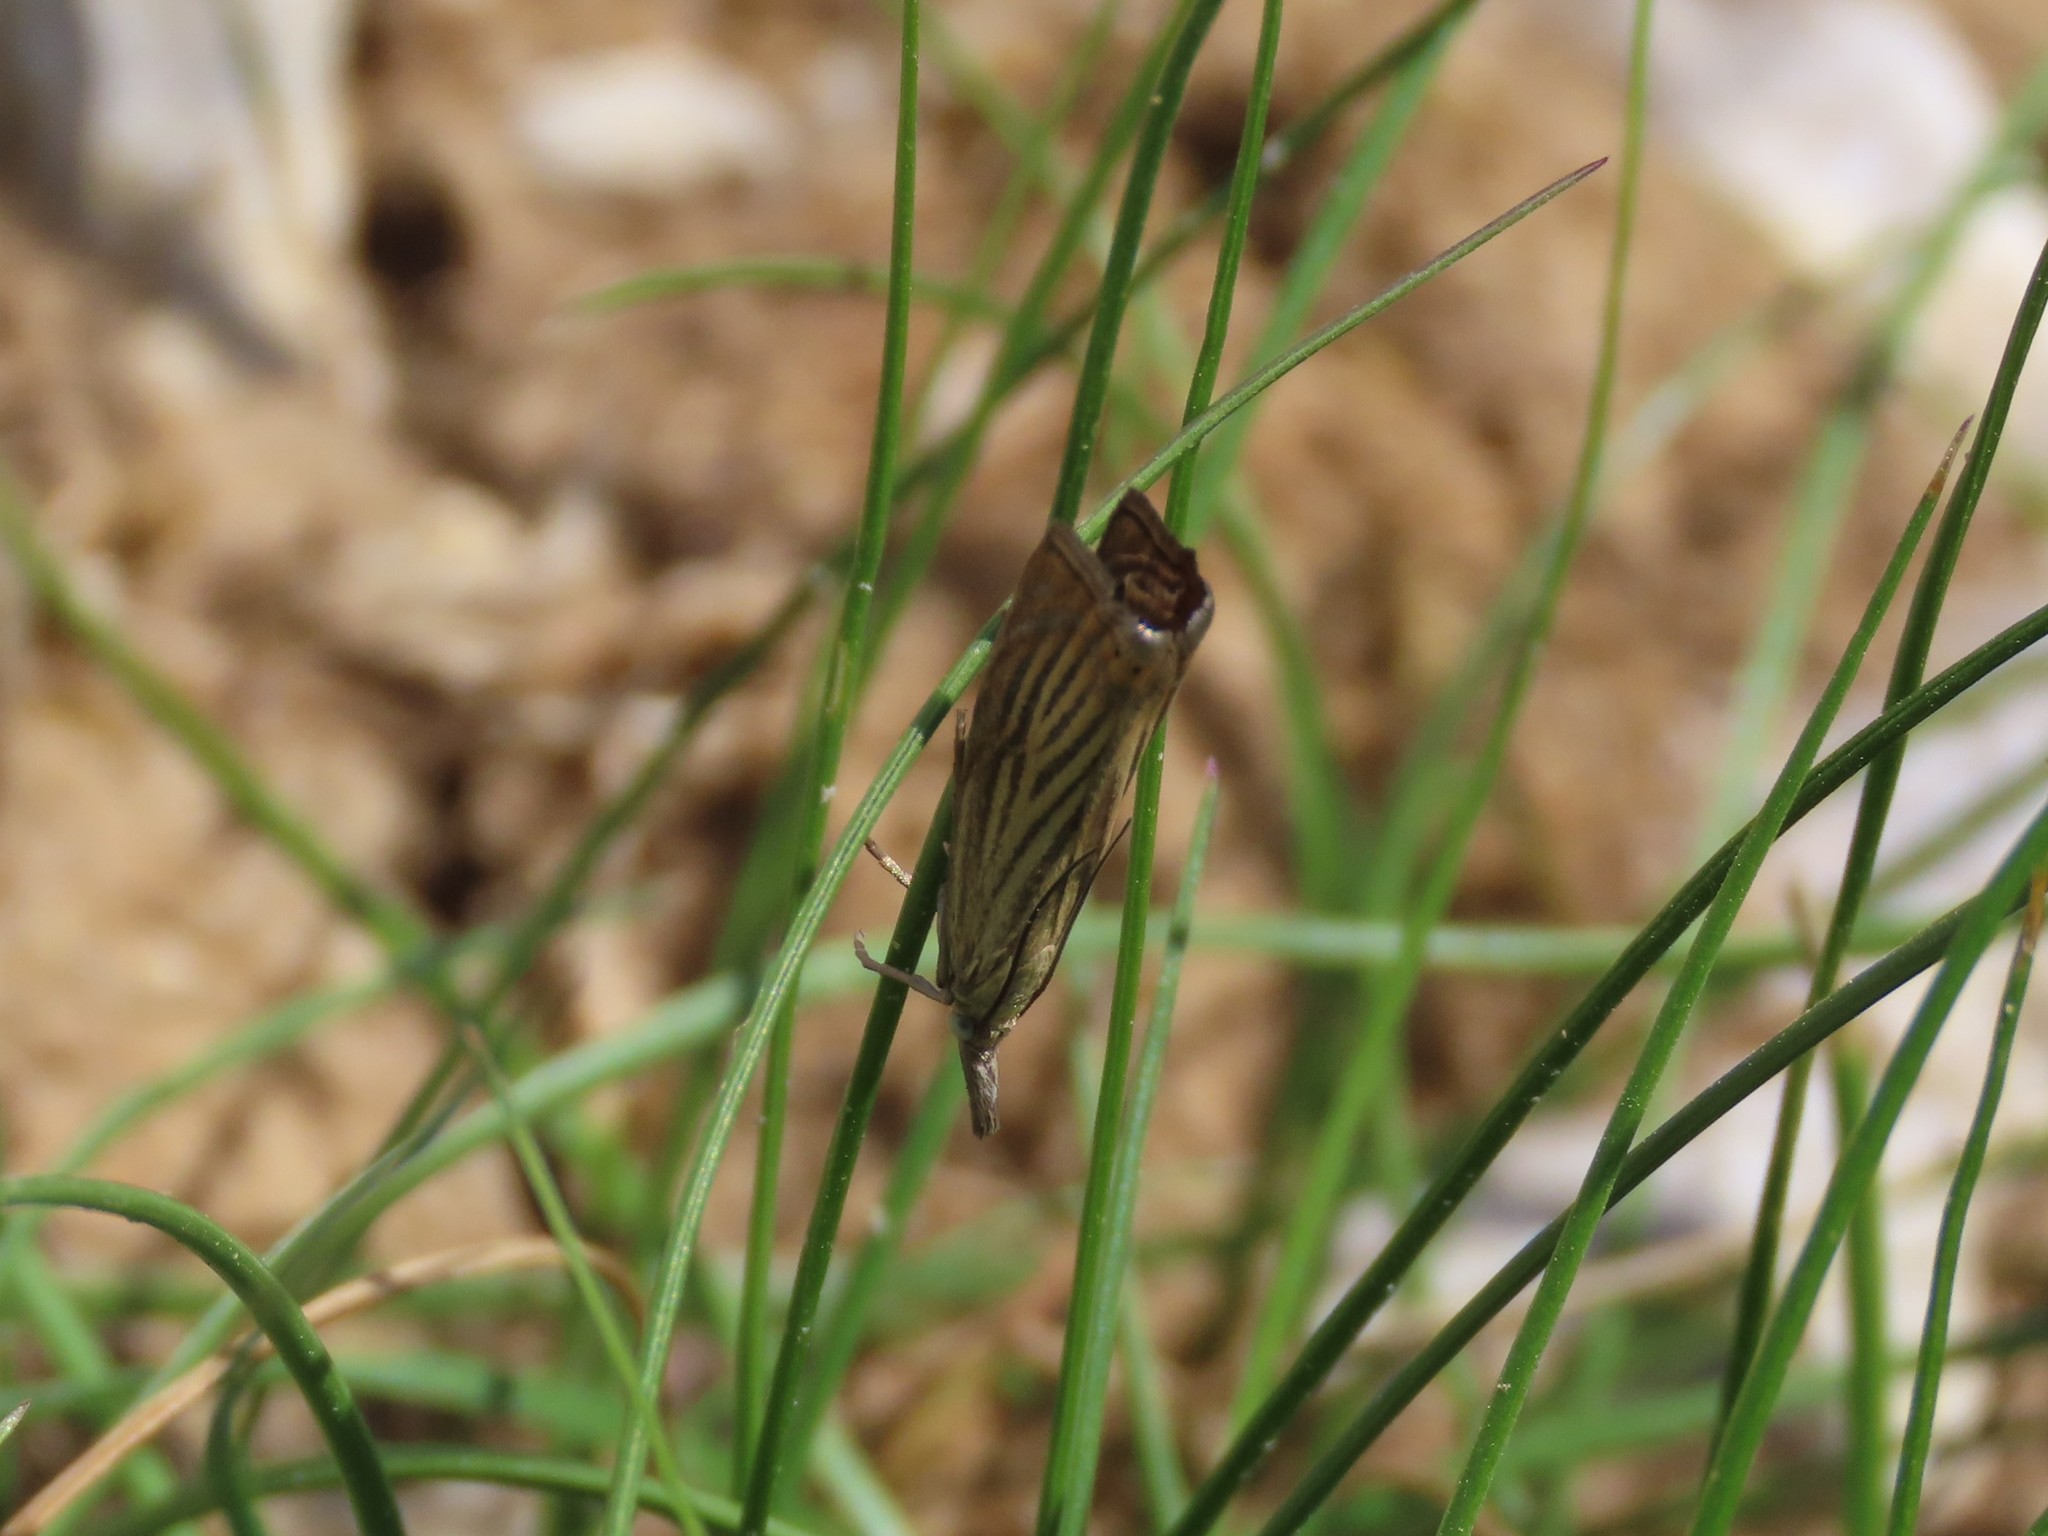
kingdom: Animalia
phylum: Arthropoda
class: Insecta
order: Lepidoptera
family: Crambidae
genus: Chrysoteuchia
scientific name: Chrysoteuchia culmella
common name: Garden grass-veneer
